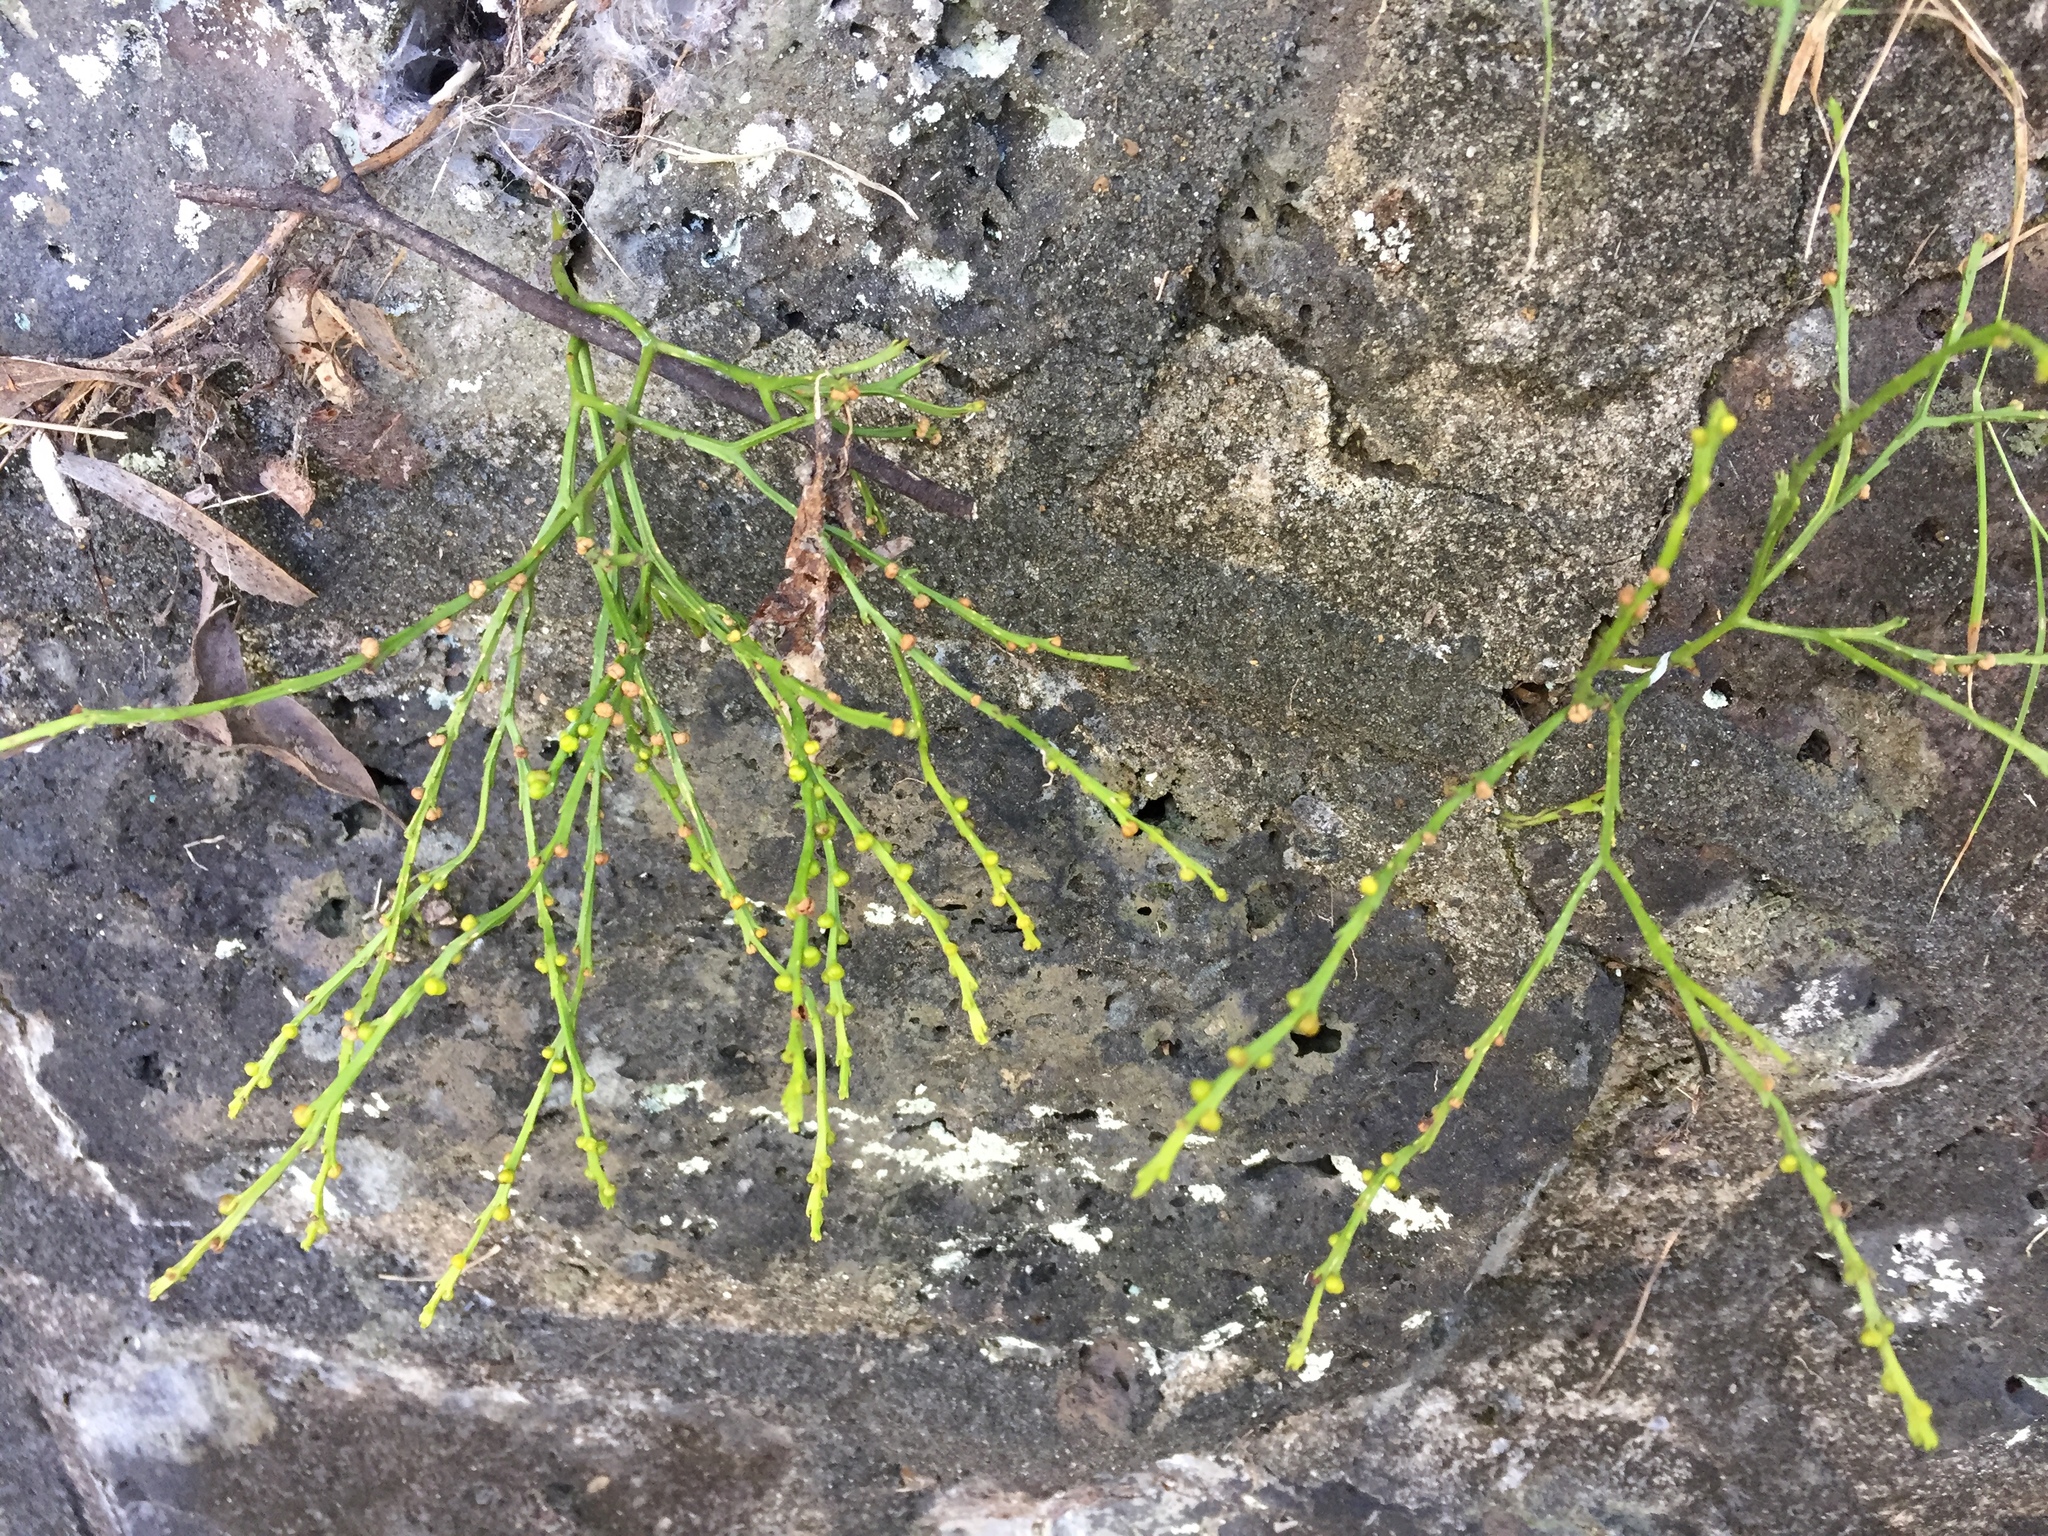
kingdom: Plantae
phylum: Tracheophyta
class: Polypodiopsida
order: Psilotales
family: Psilotaceae
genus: Psilotum
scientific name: Psilotum nudum
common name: Skeleton fork fern
